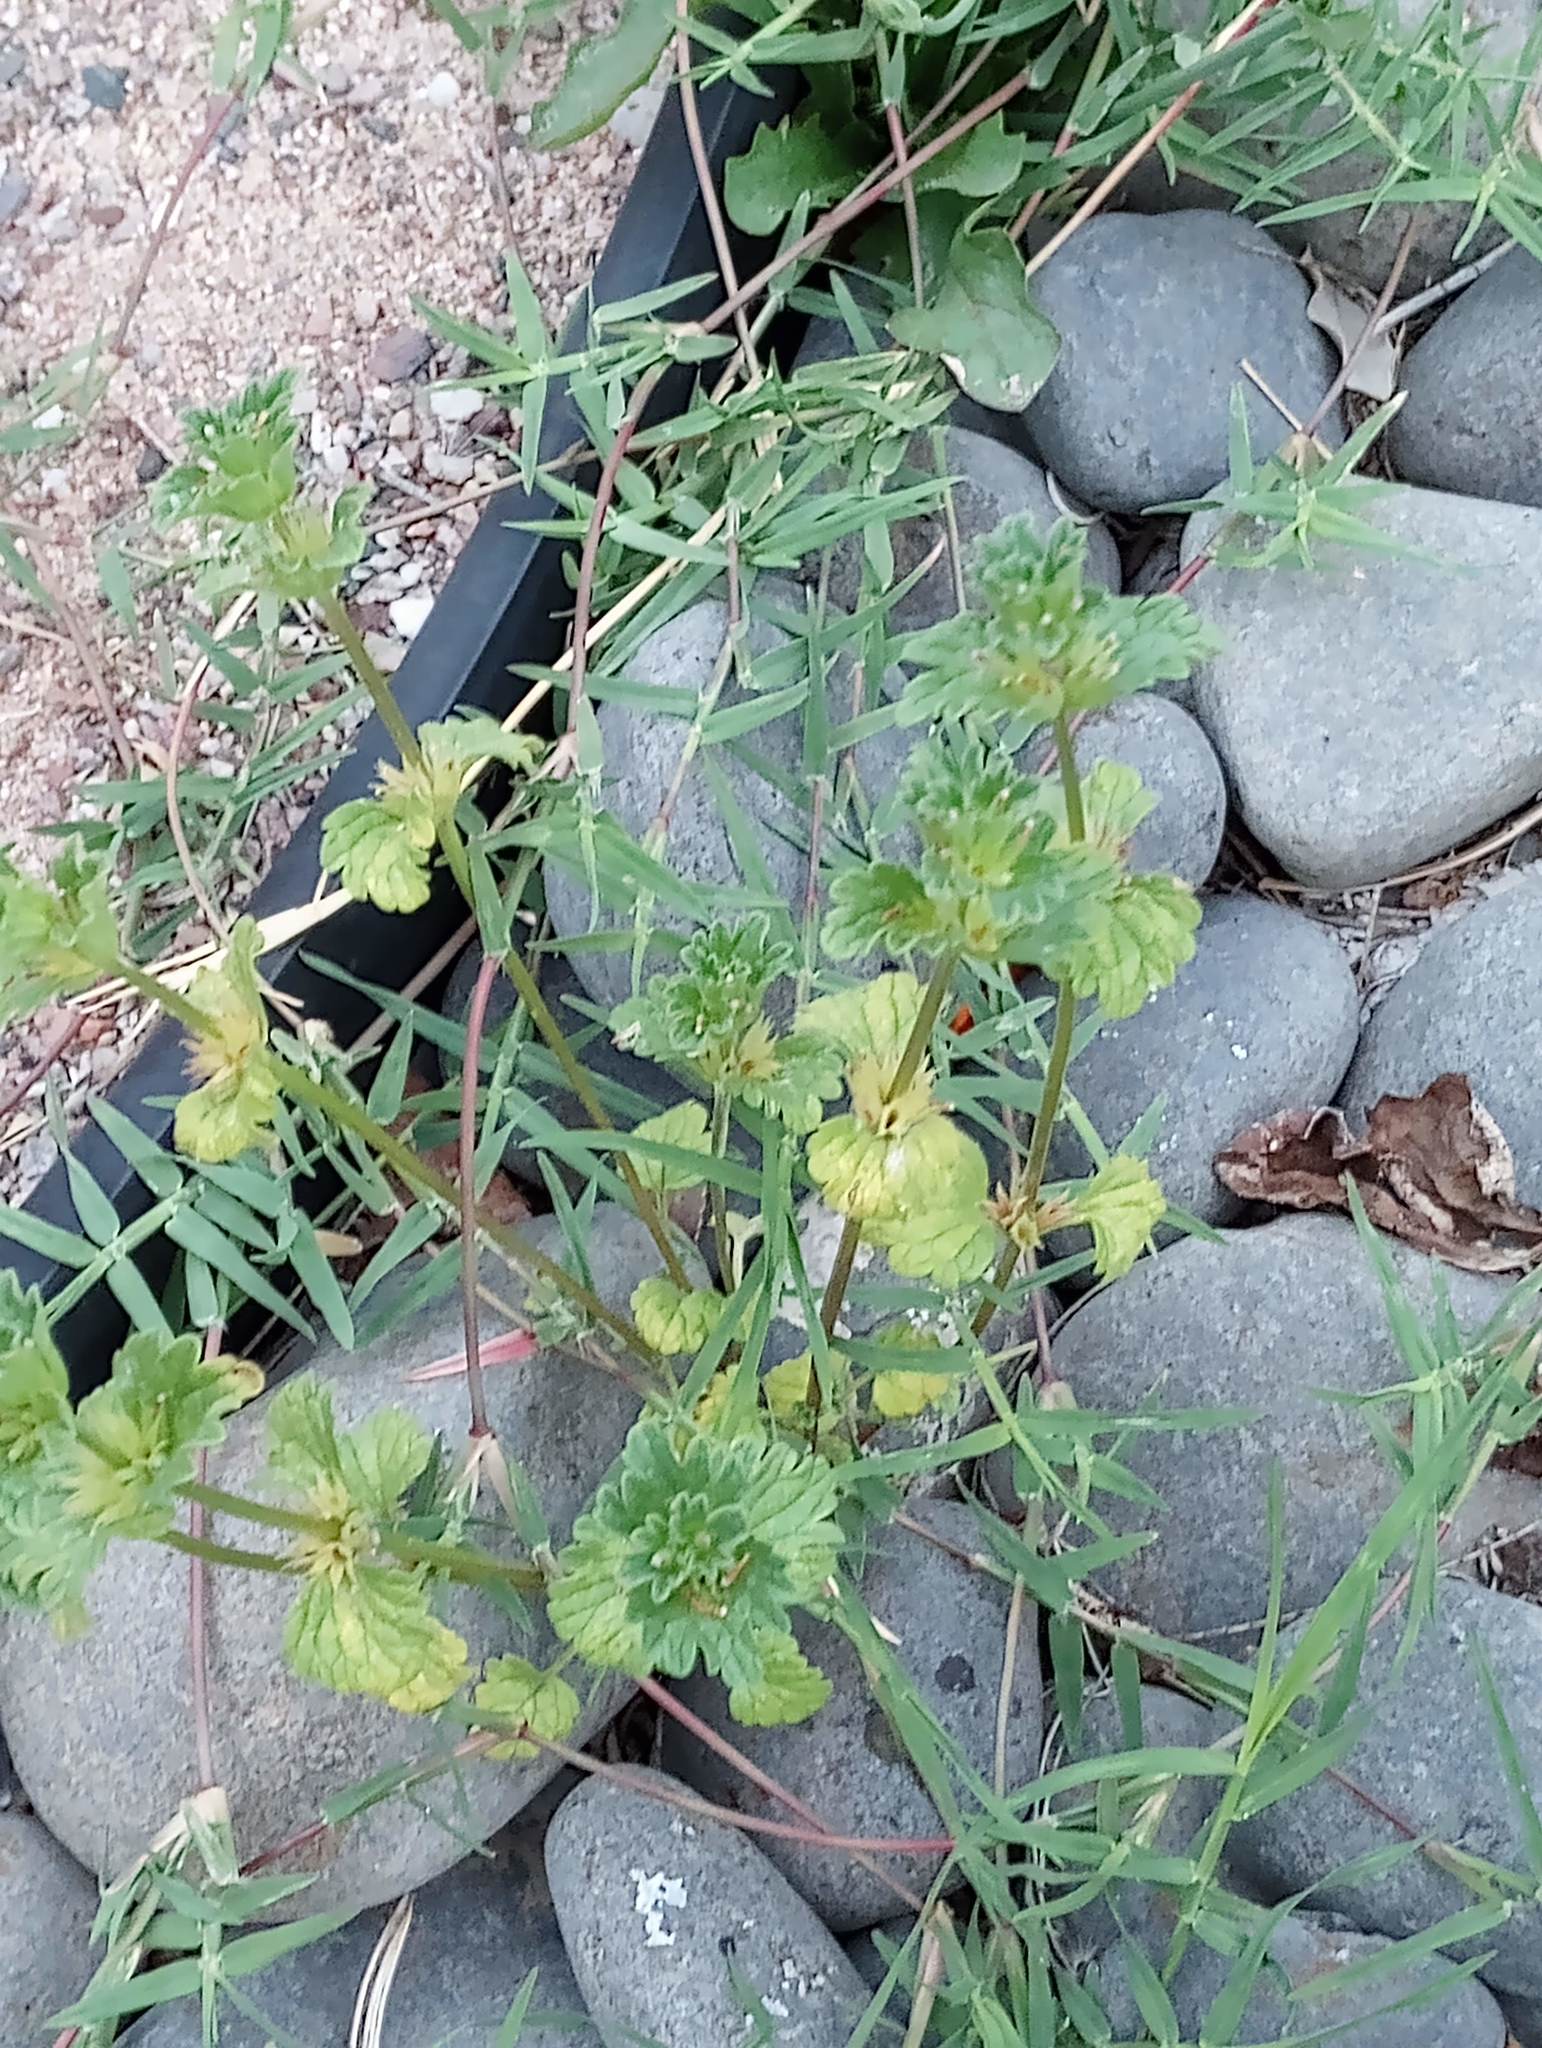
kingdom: Plantae
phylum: Tracheophyta
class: Magnoliopsida
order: Lamiales
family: Lamiaceae
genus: Lamium
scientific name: Lamium amplexicaule
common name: Henbit dead-nettle
